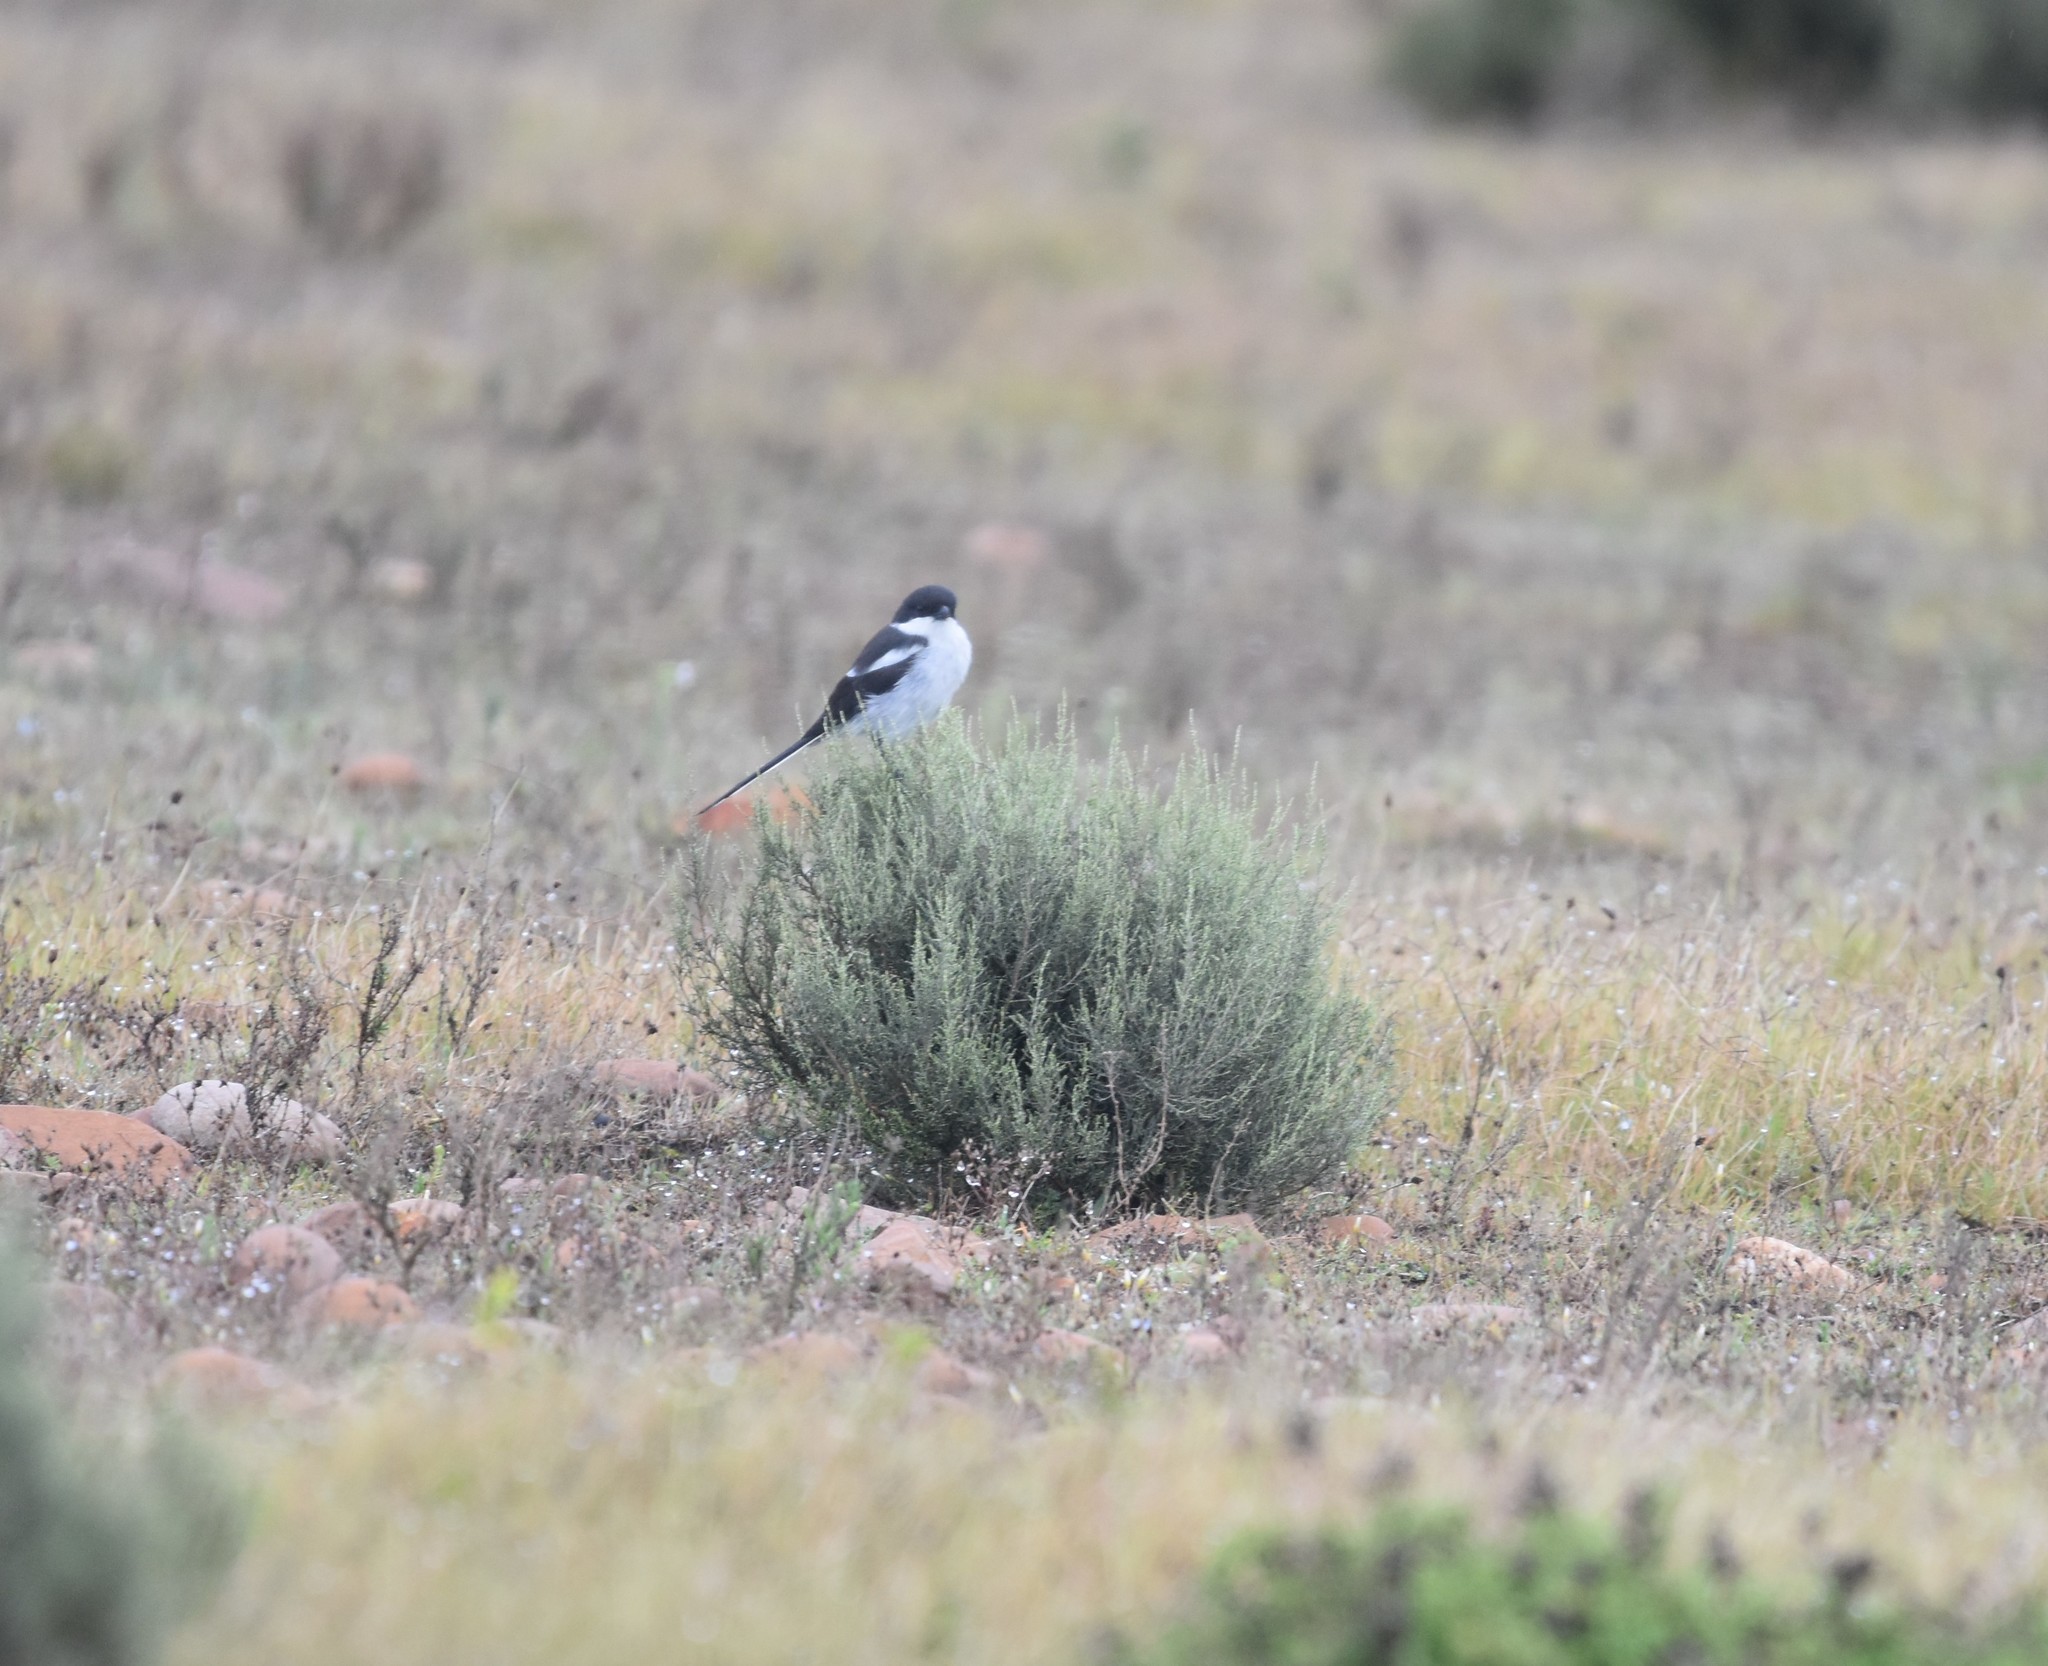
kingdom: Animalia
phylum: Chordata
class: Aves
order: Passeriformes
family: Laniidae
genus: Lanius
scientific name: Lanius collaris
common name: Southern fiscal
